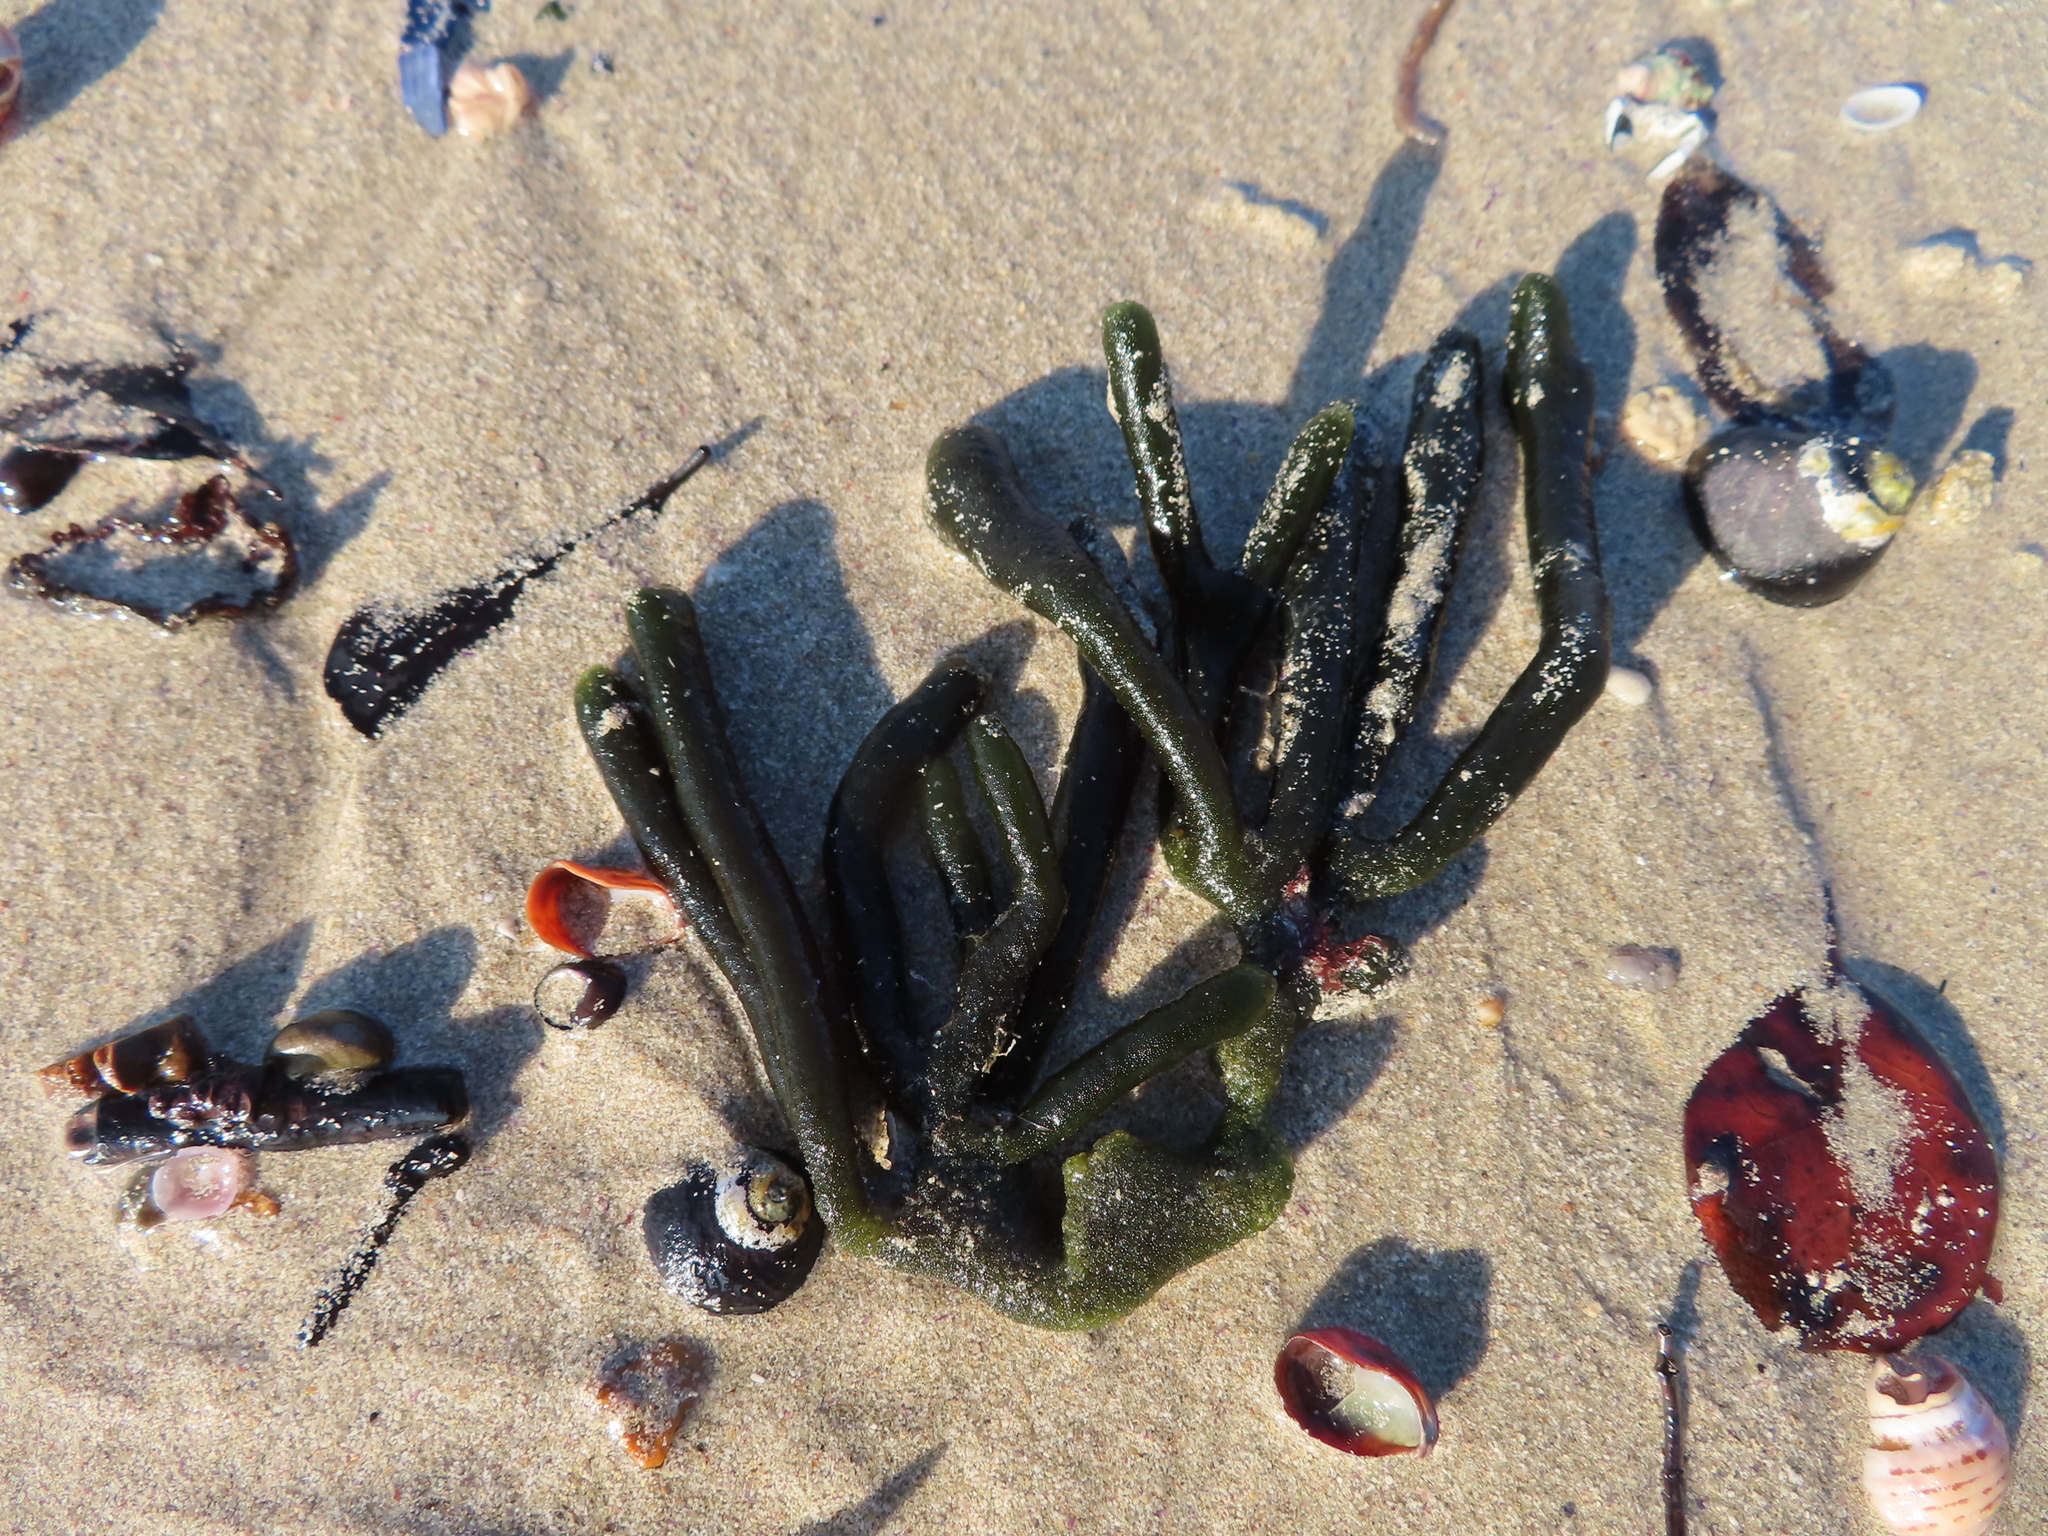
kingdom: Plantae
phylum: Chlorophyta
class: Ulvophyceae
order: Bryopsidales
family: Codiaceae
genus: Codium
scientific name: Codium
